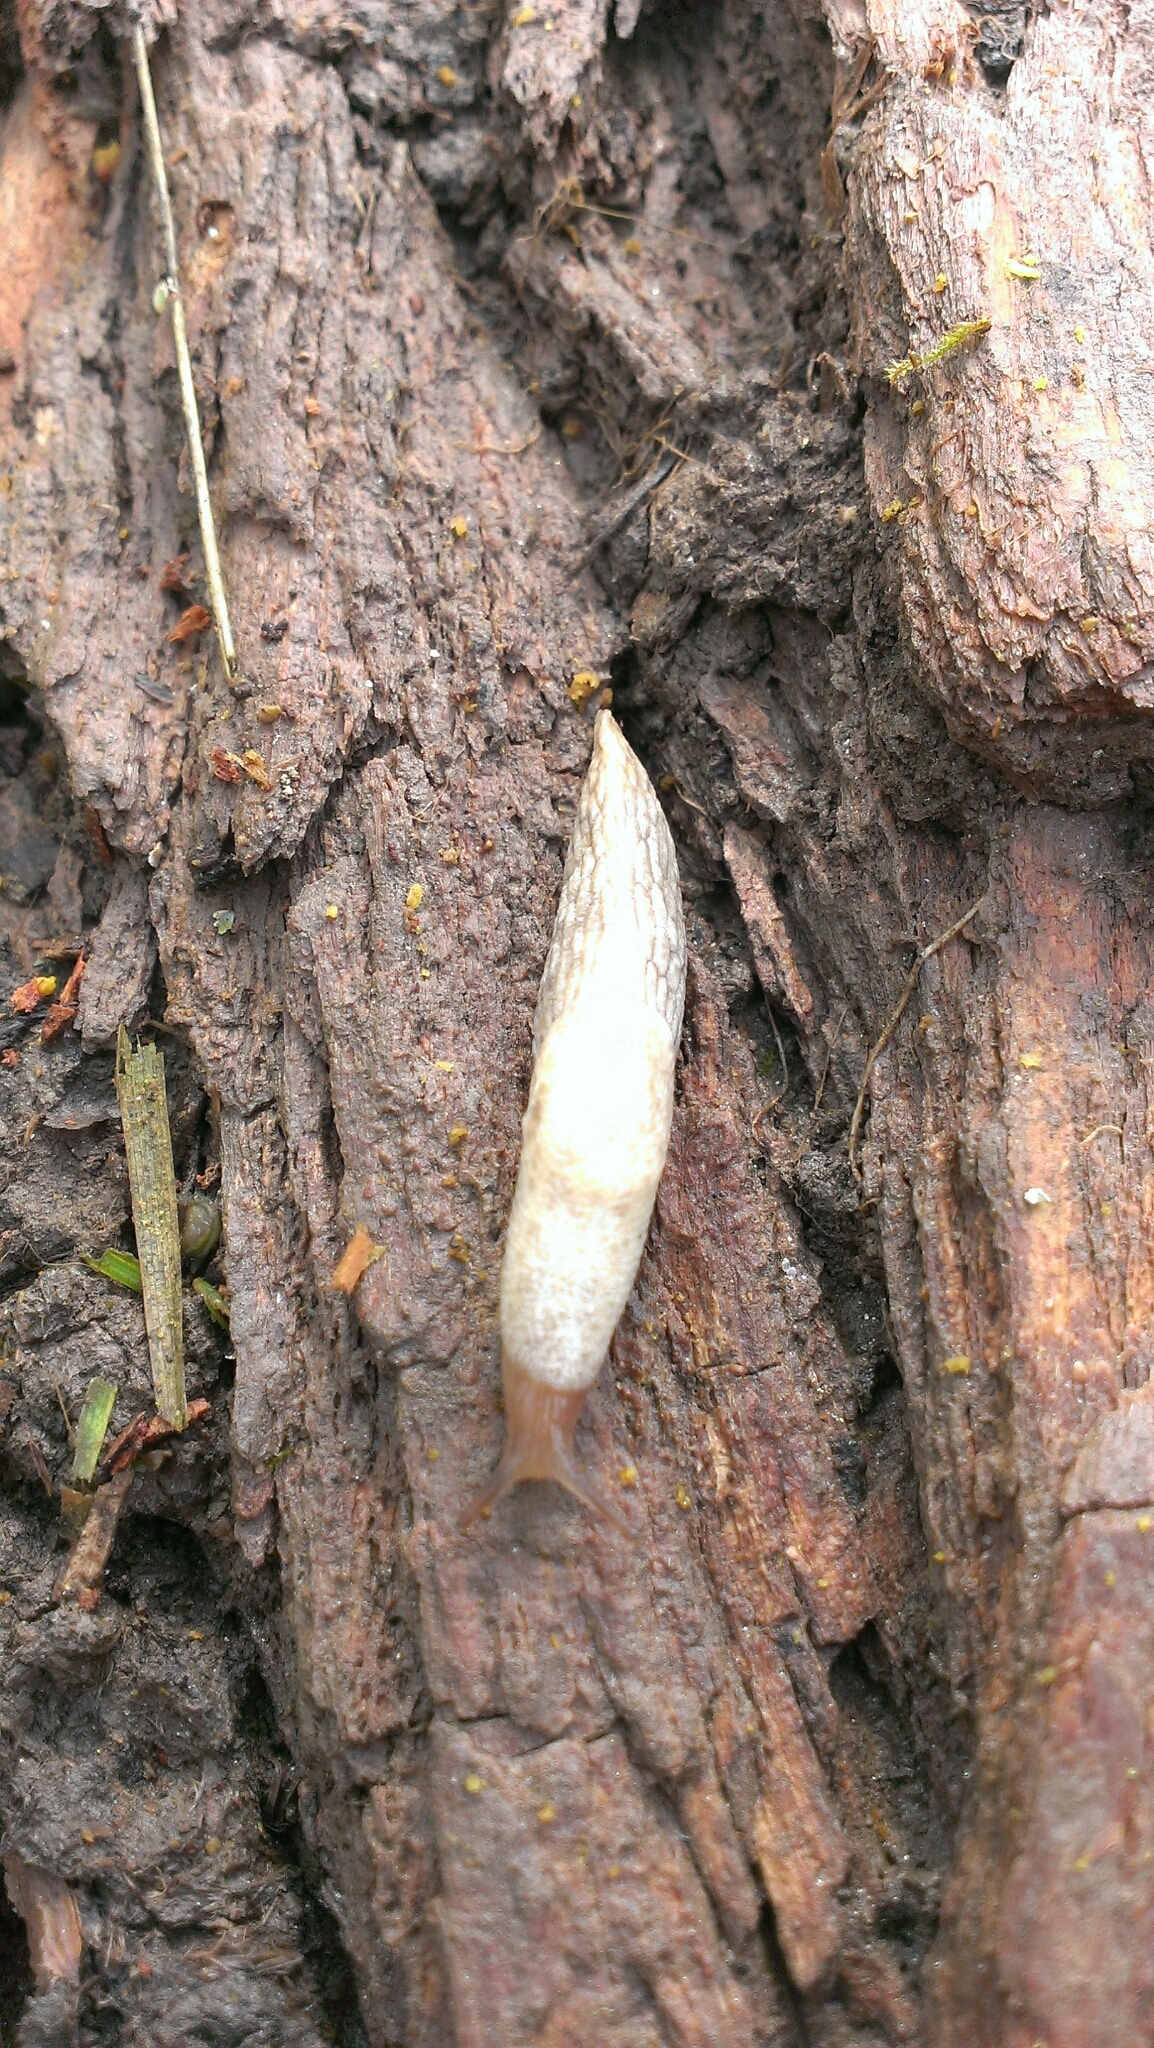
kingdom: Animalia
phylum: Mollusca
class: Gastropoda
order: Stylommatophora
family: Agriolimacidae
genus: Deroceras
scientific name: Deroceras reticulatum
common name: Gray field slug
